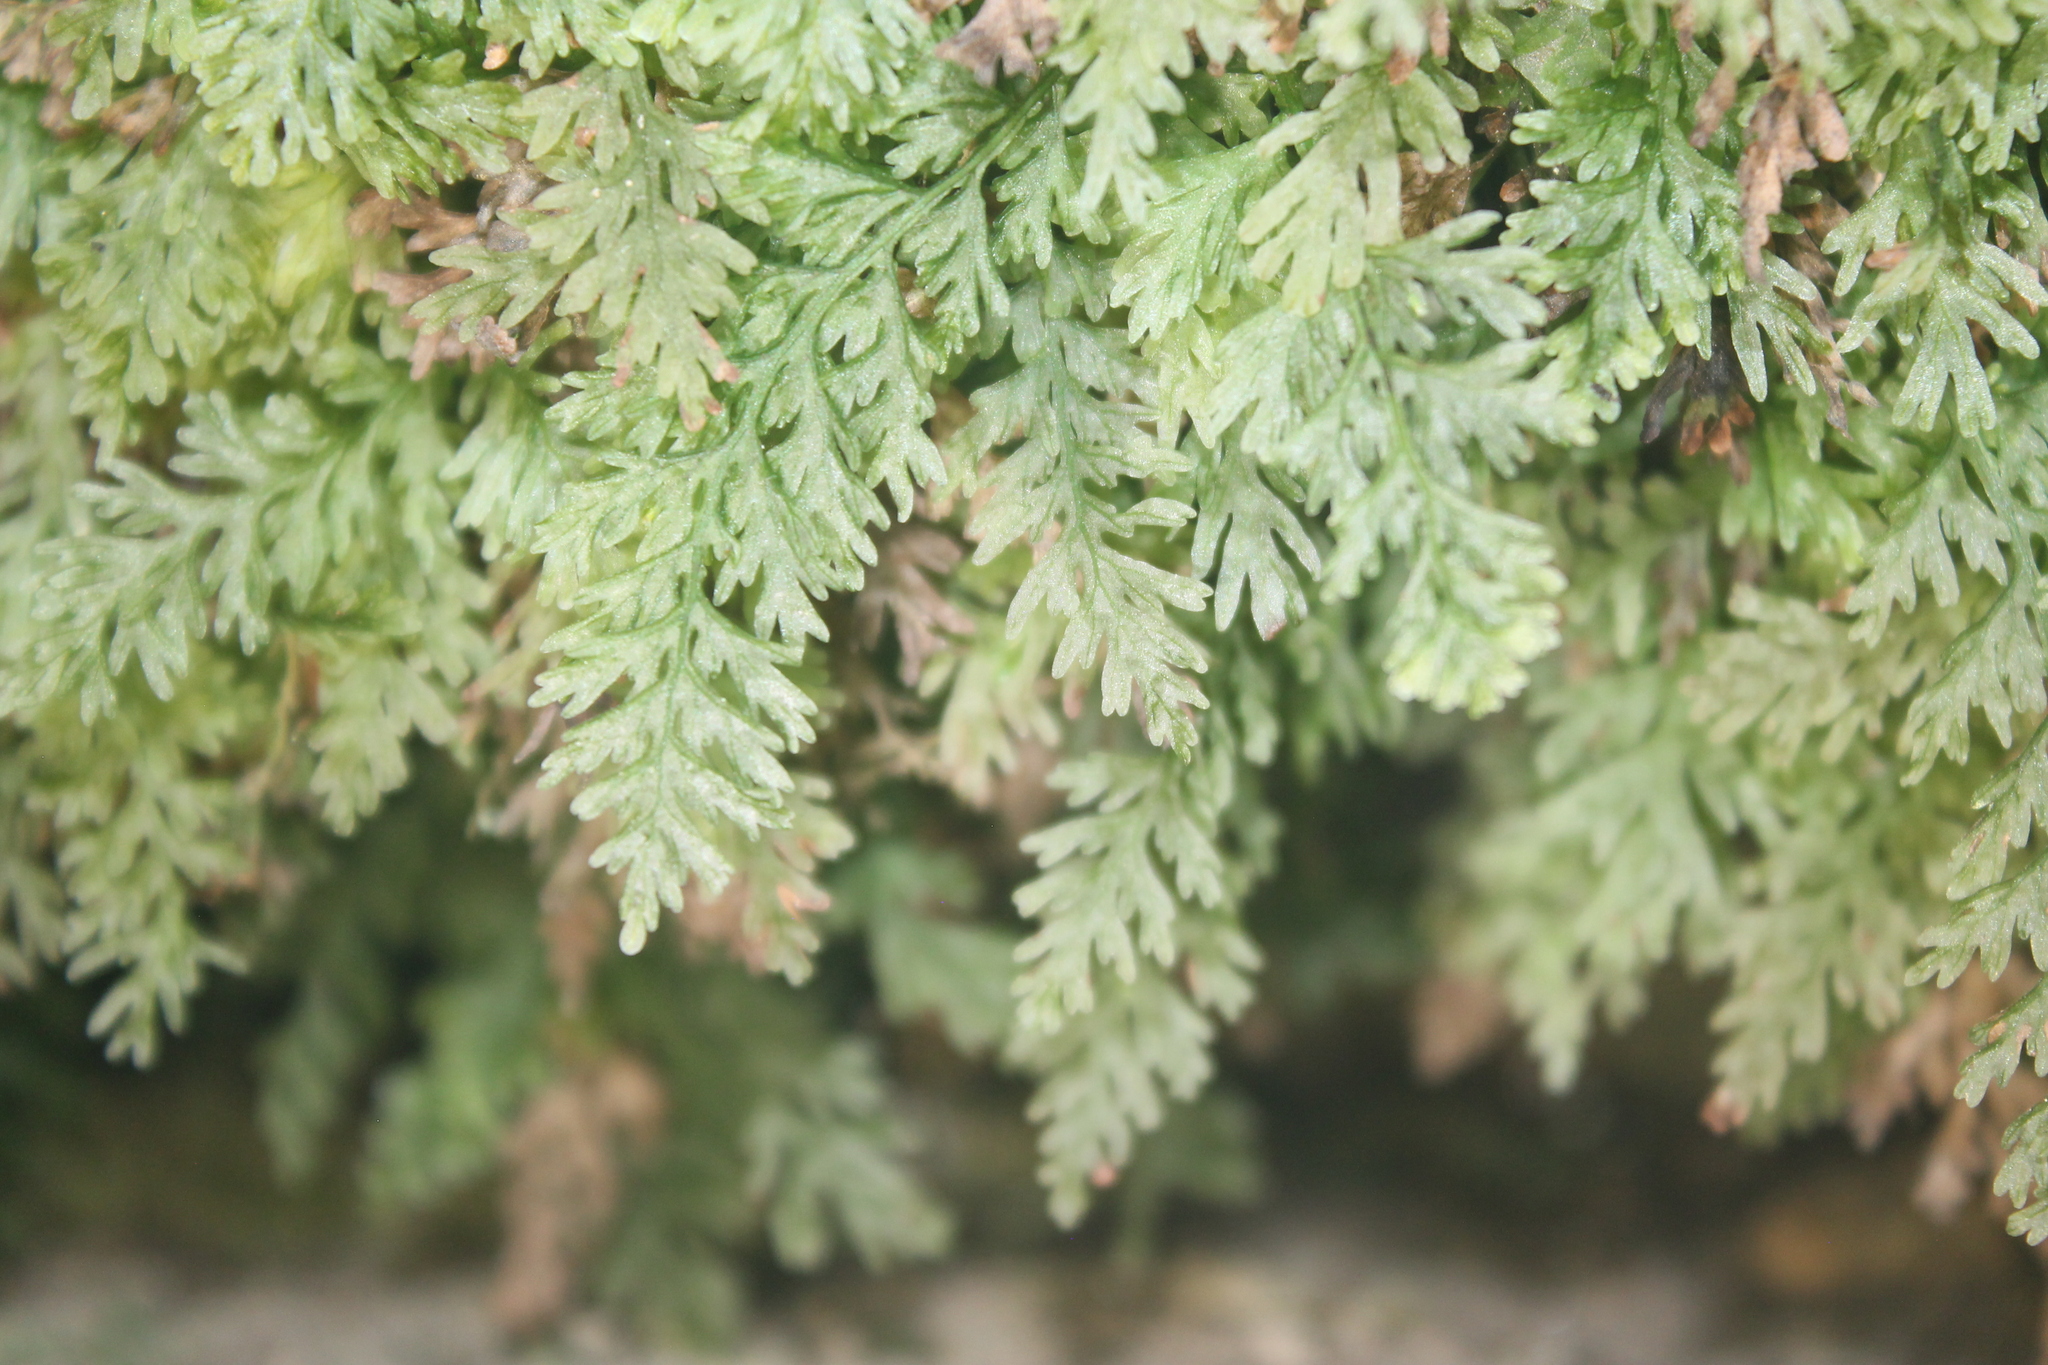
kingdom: Plantae
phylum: Tracheophyta
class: Polypodiopsida
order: Hymenophyllales
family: Hymenophyllaceae
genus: Vandenboschia
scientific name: Vandenboschia boschiana
